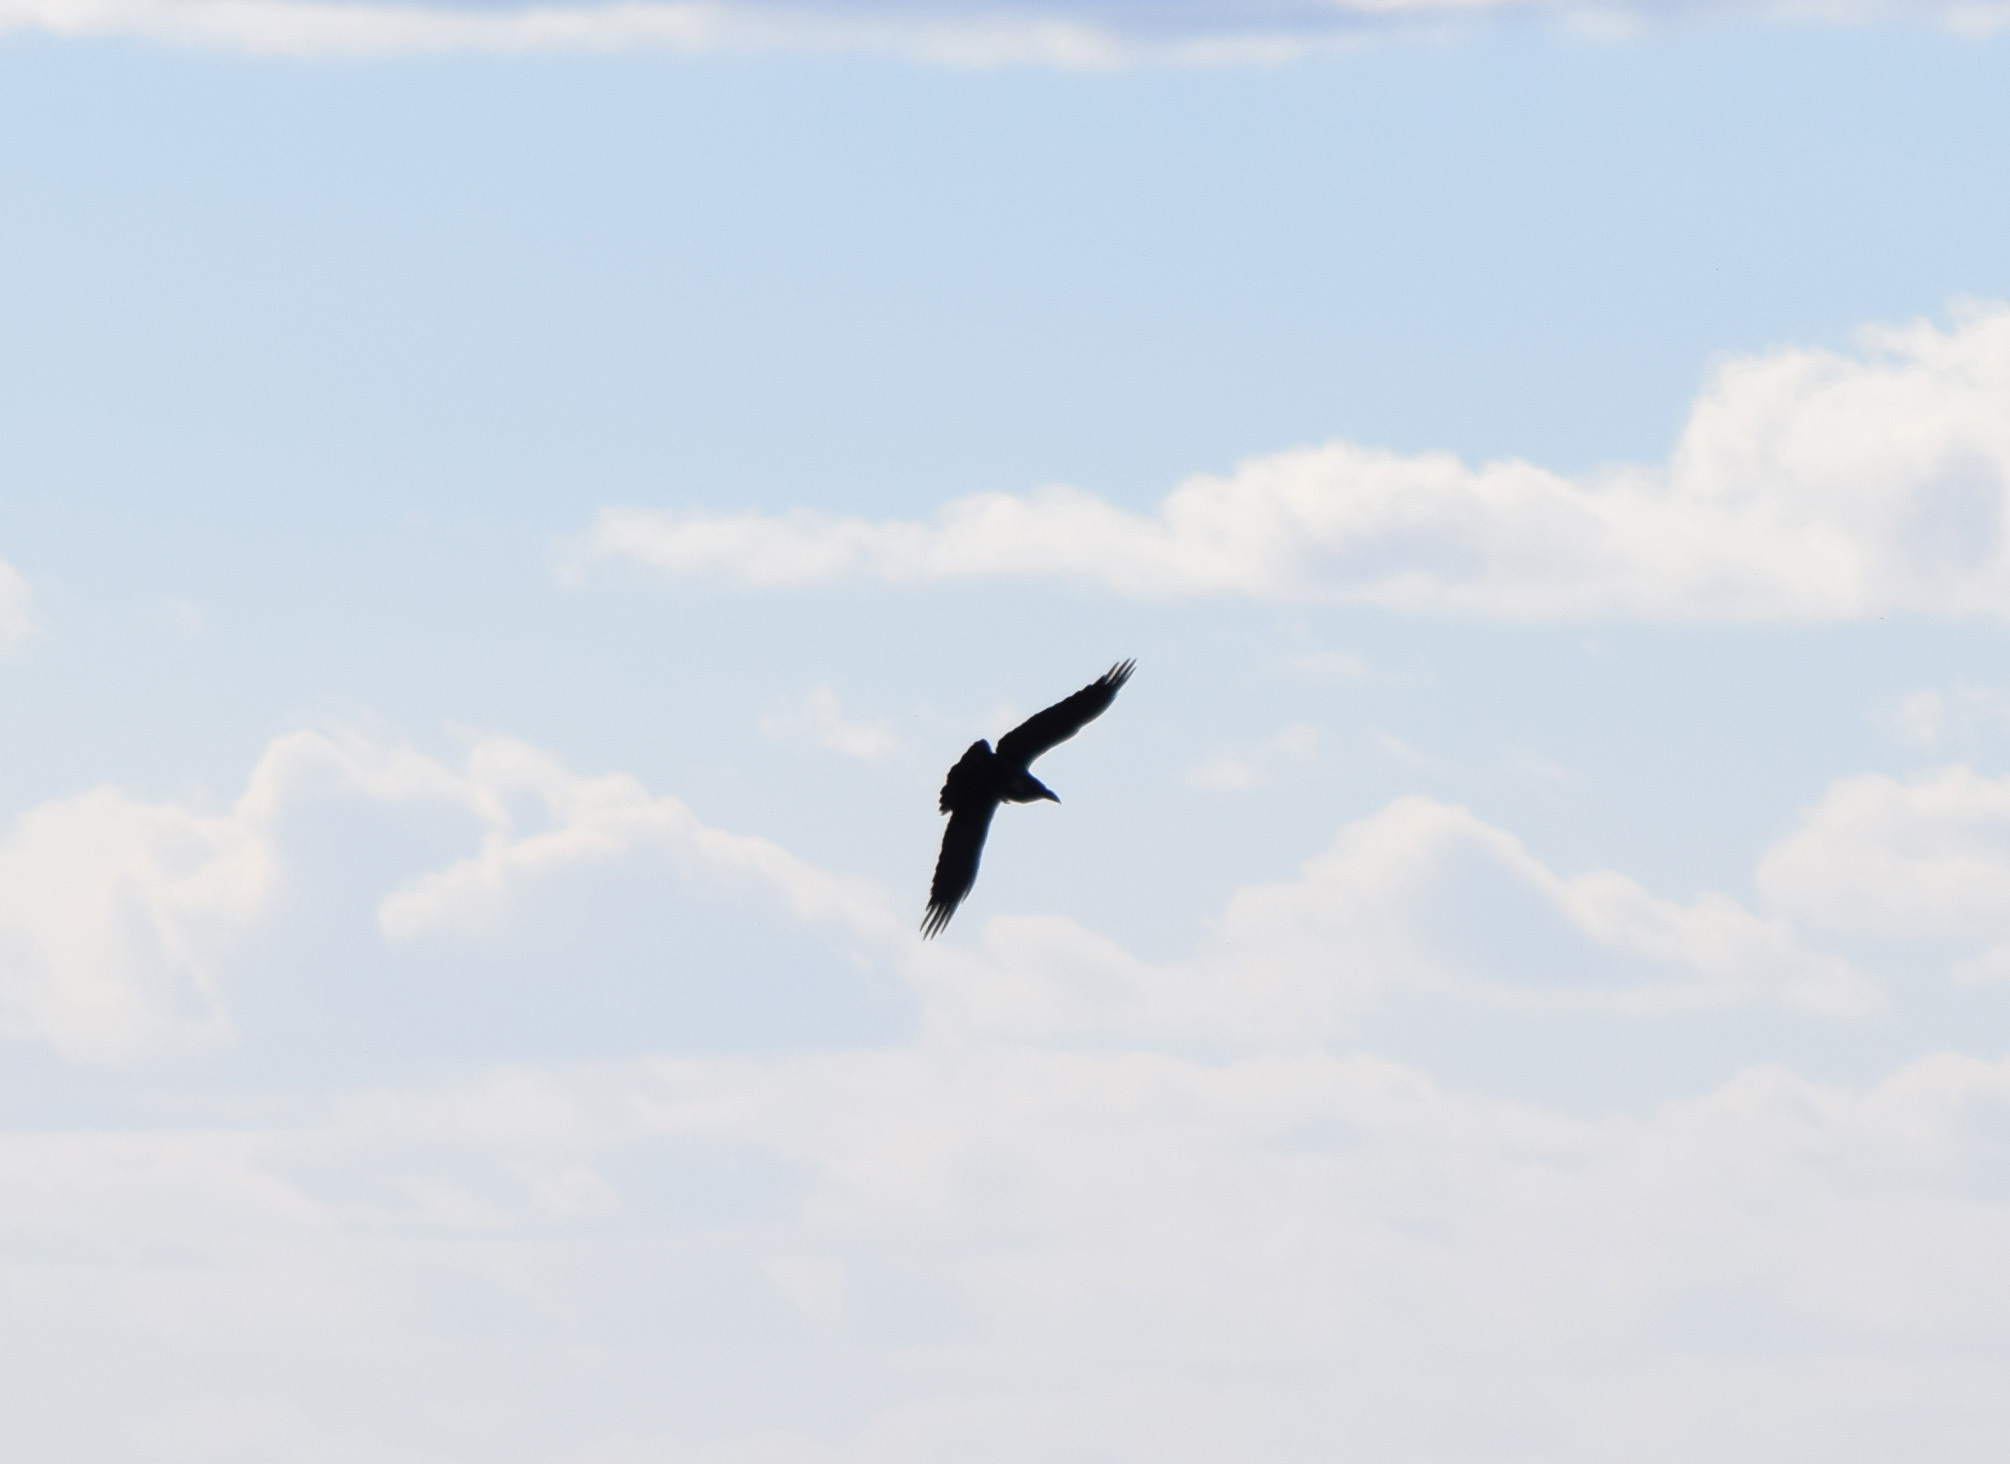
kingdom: Animalia
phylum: Chordata
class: Aves
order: Passeriformes
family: Corvidae
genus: Corvus
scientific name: Corvus corax
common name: Common raven
